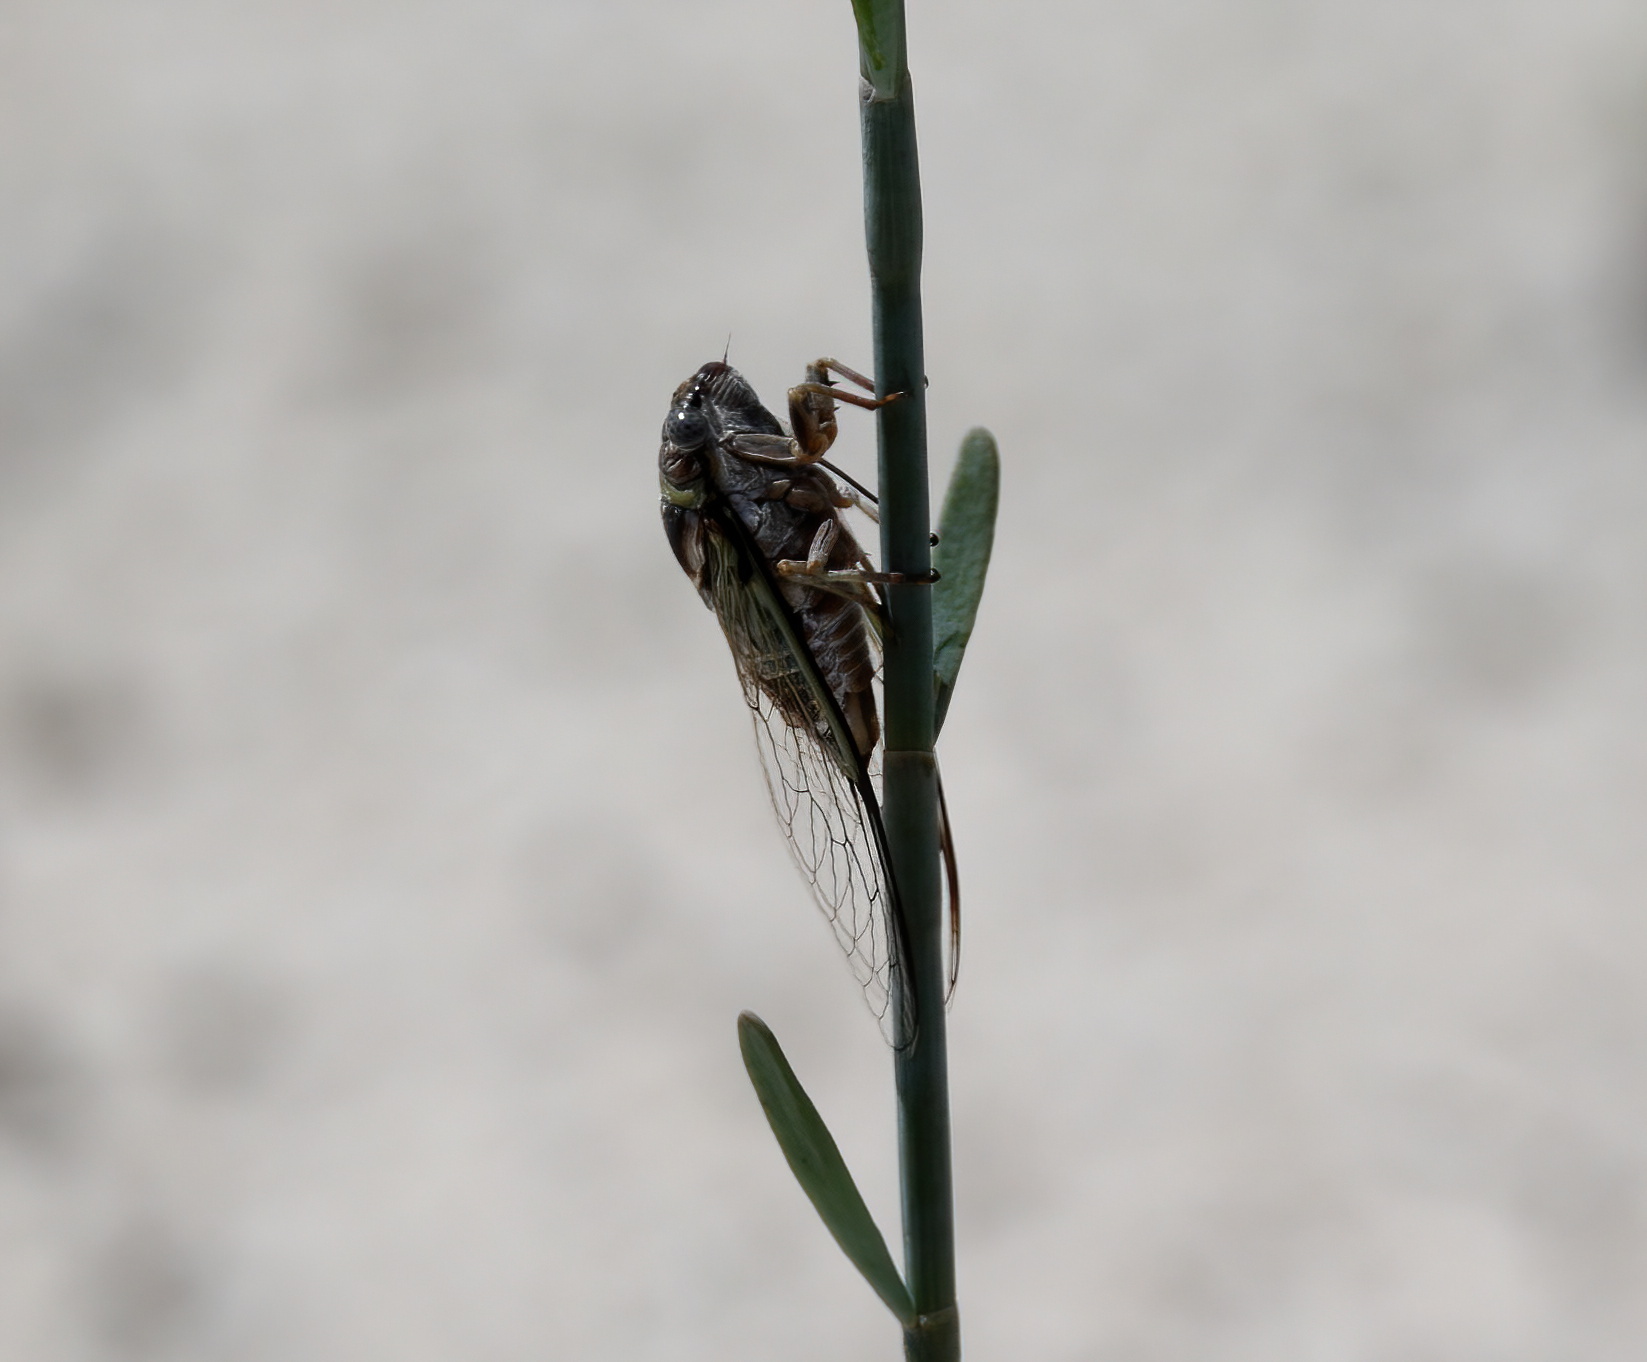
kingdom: Animalia
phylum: Arthropoda
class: Insecta
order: Hemiptera
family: Cicadidae
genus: Diceroprocta
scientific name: Diceroprocta viridifascia
